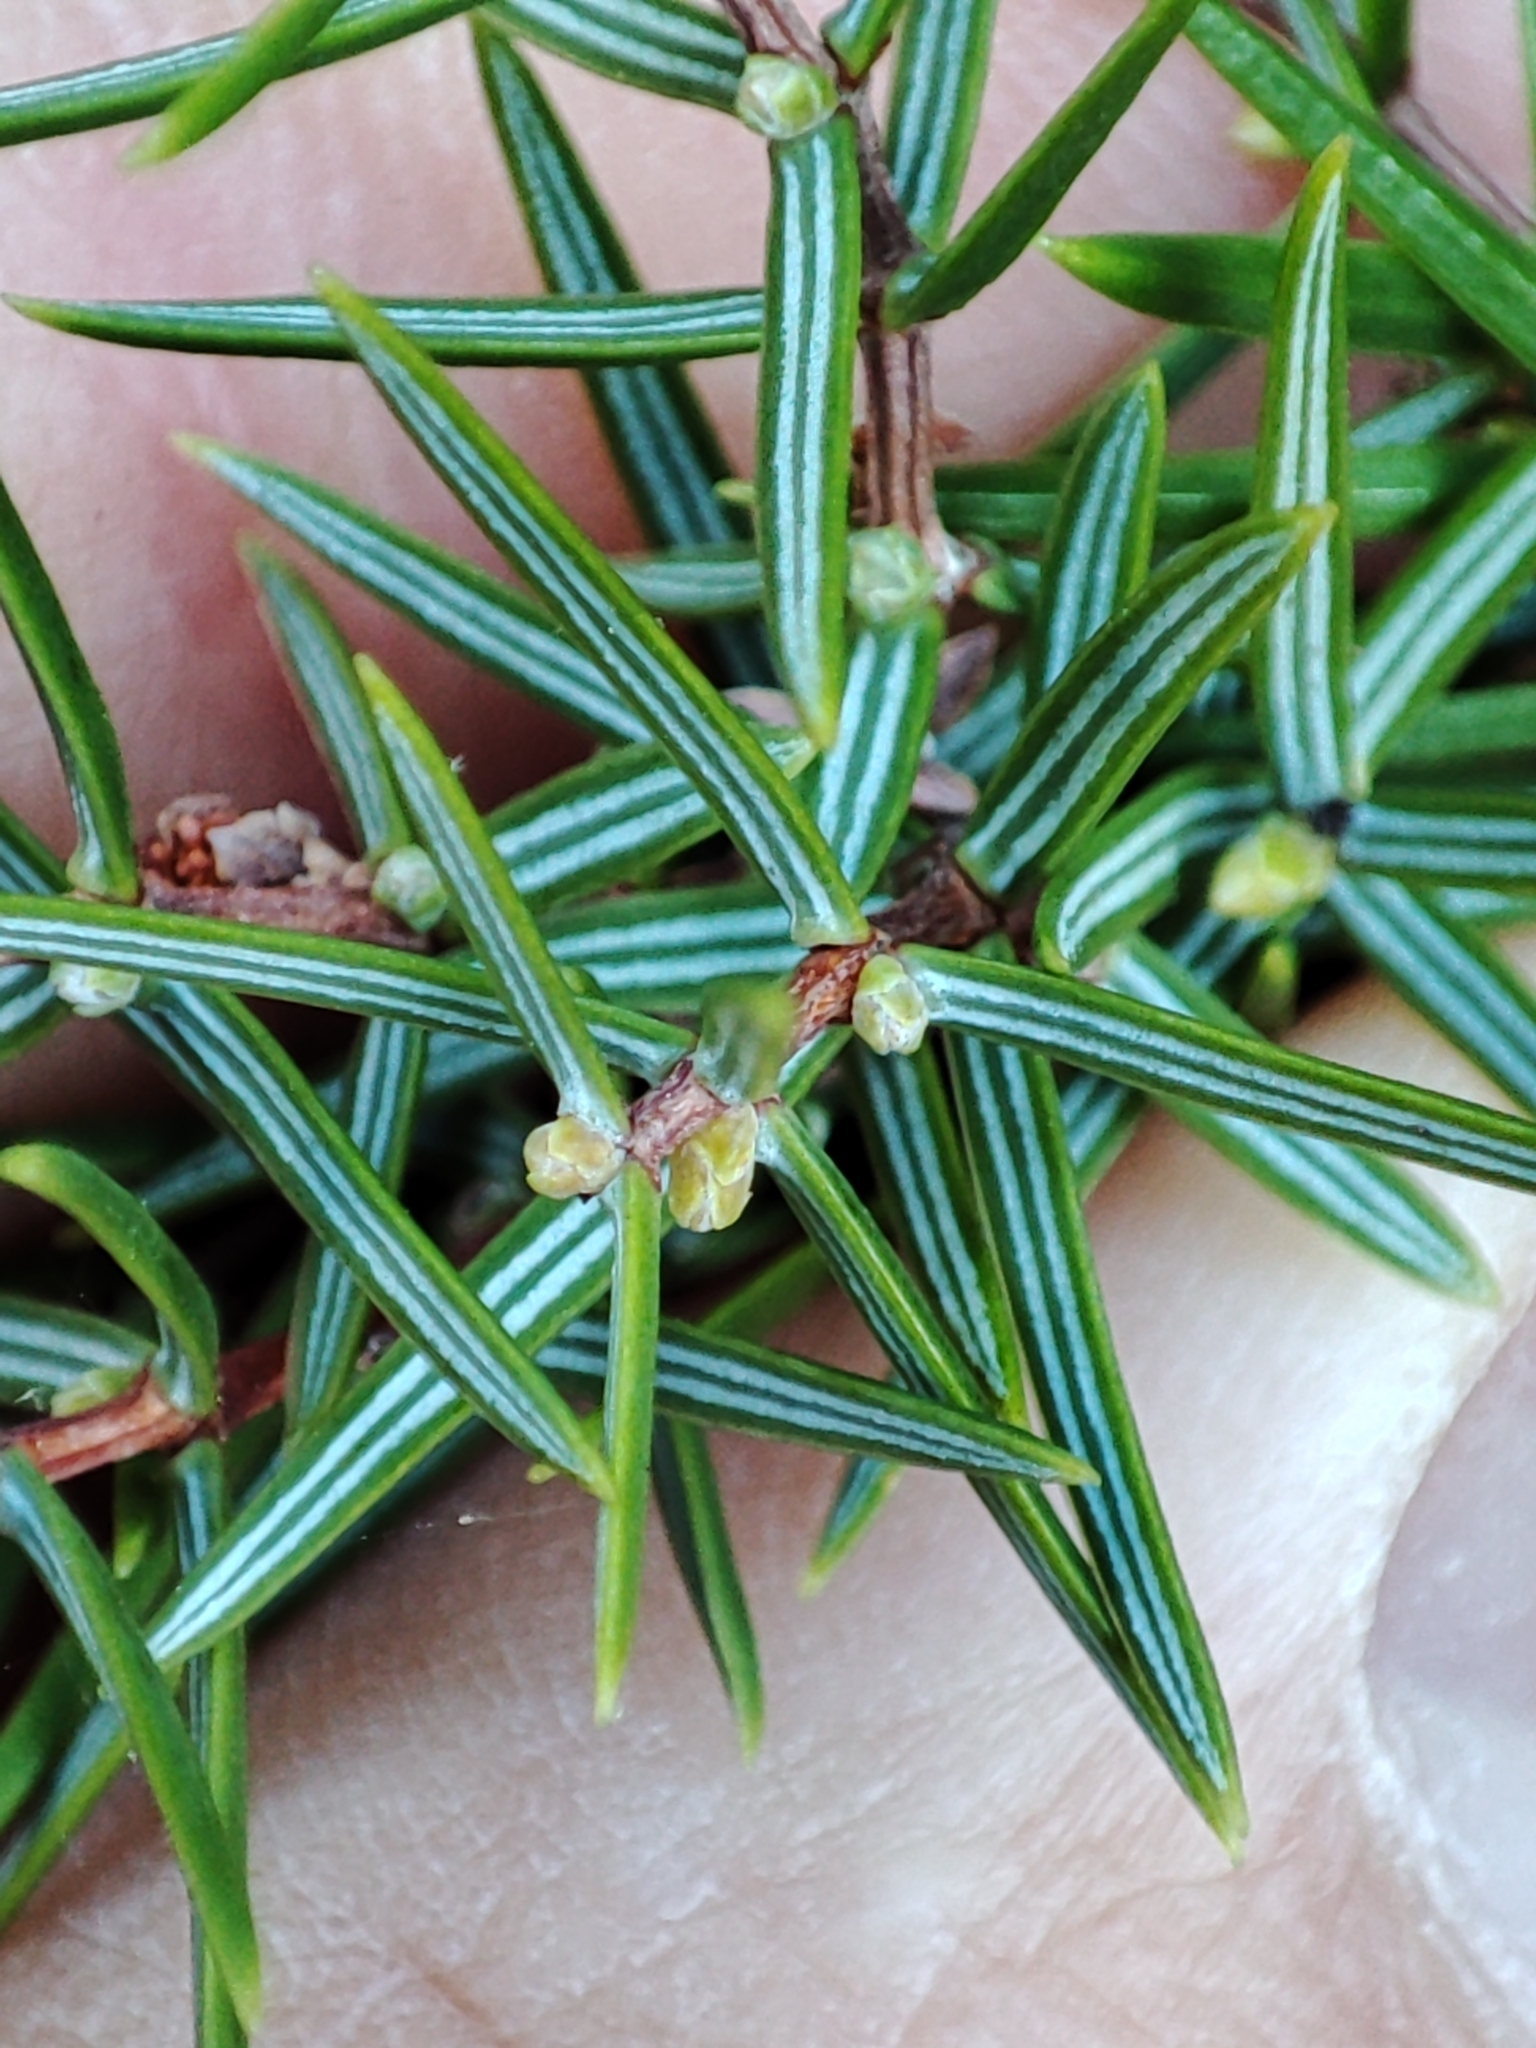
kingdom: Plantae
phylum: Tracheophyta
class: Pinopsida
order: Pinales
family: Cupressaceae
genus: Juniperus
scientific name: Juniperus oxycedrus
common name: Prickly juniper
